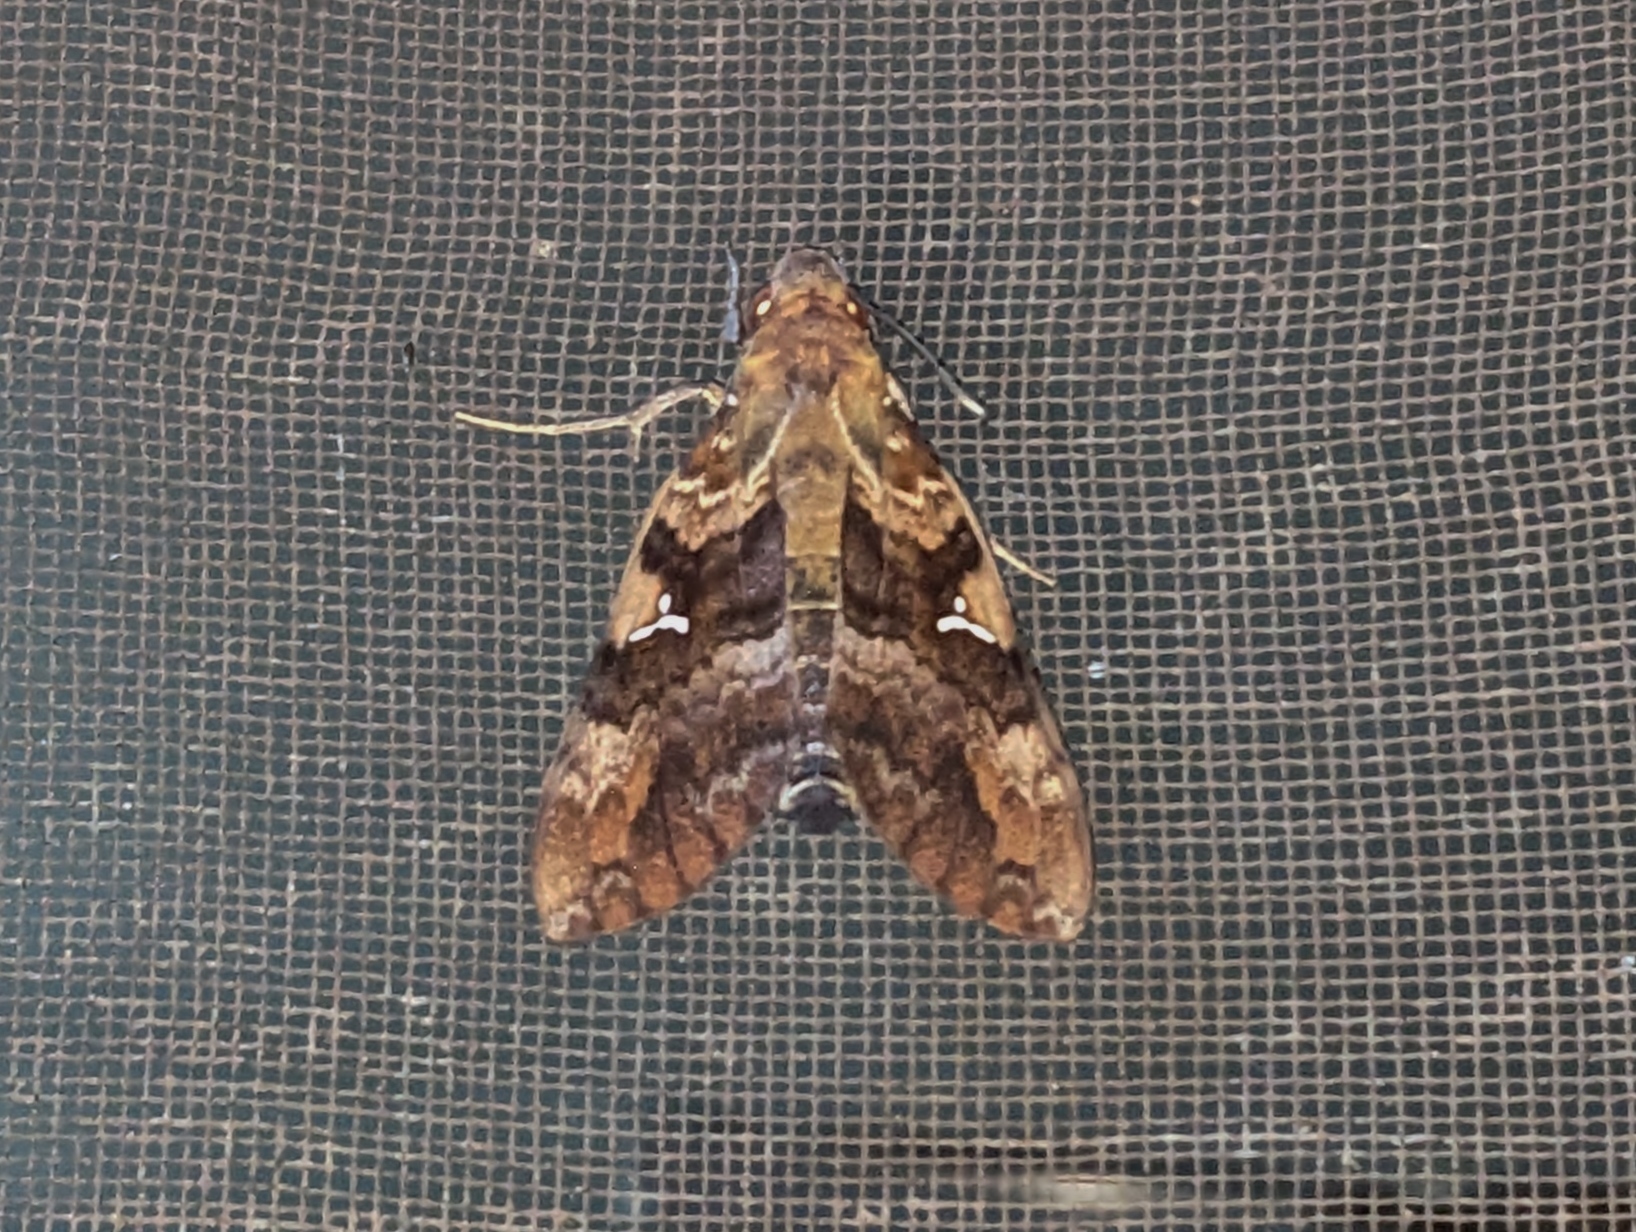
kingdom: Animalia
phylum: Arthropoda
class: Insecta
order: Lepidoptera
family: Sphingidae
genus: Nephele
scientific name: Nephele accentifera
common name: Accented hawk-moth
